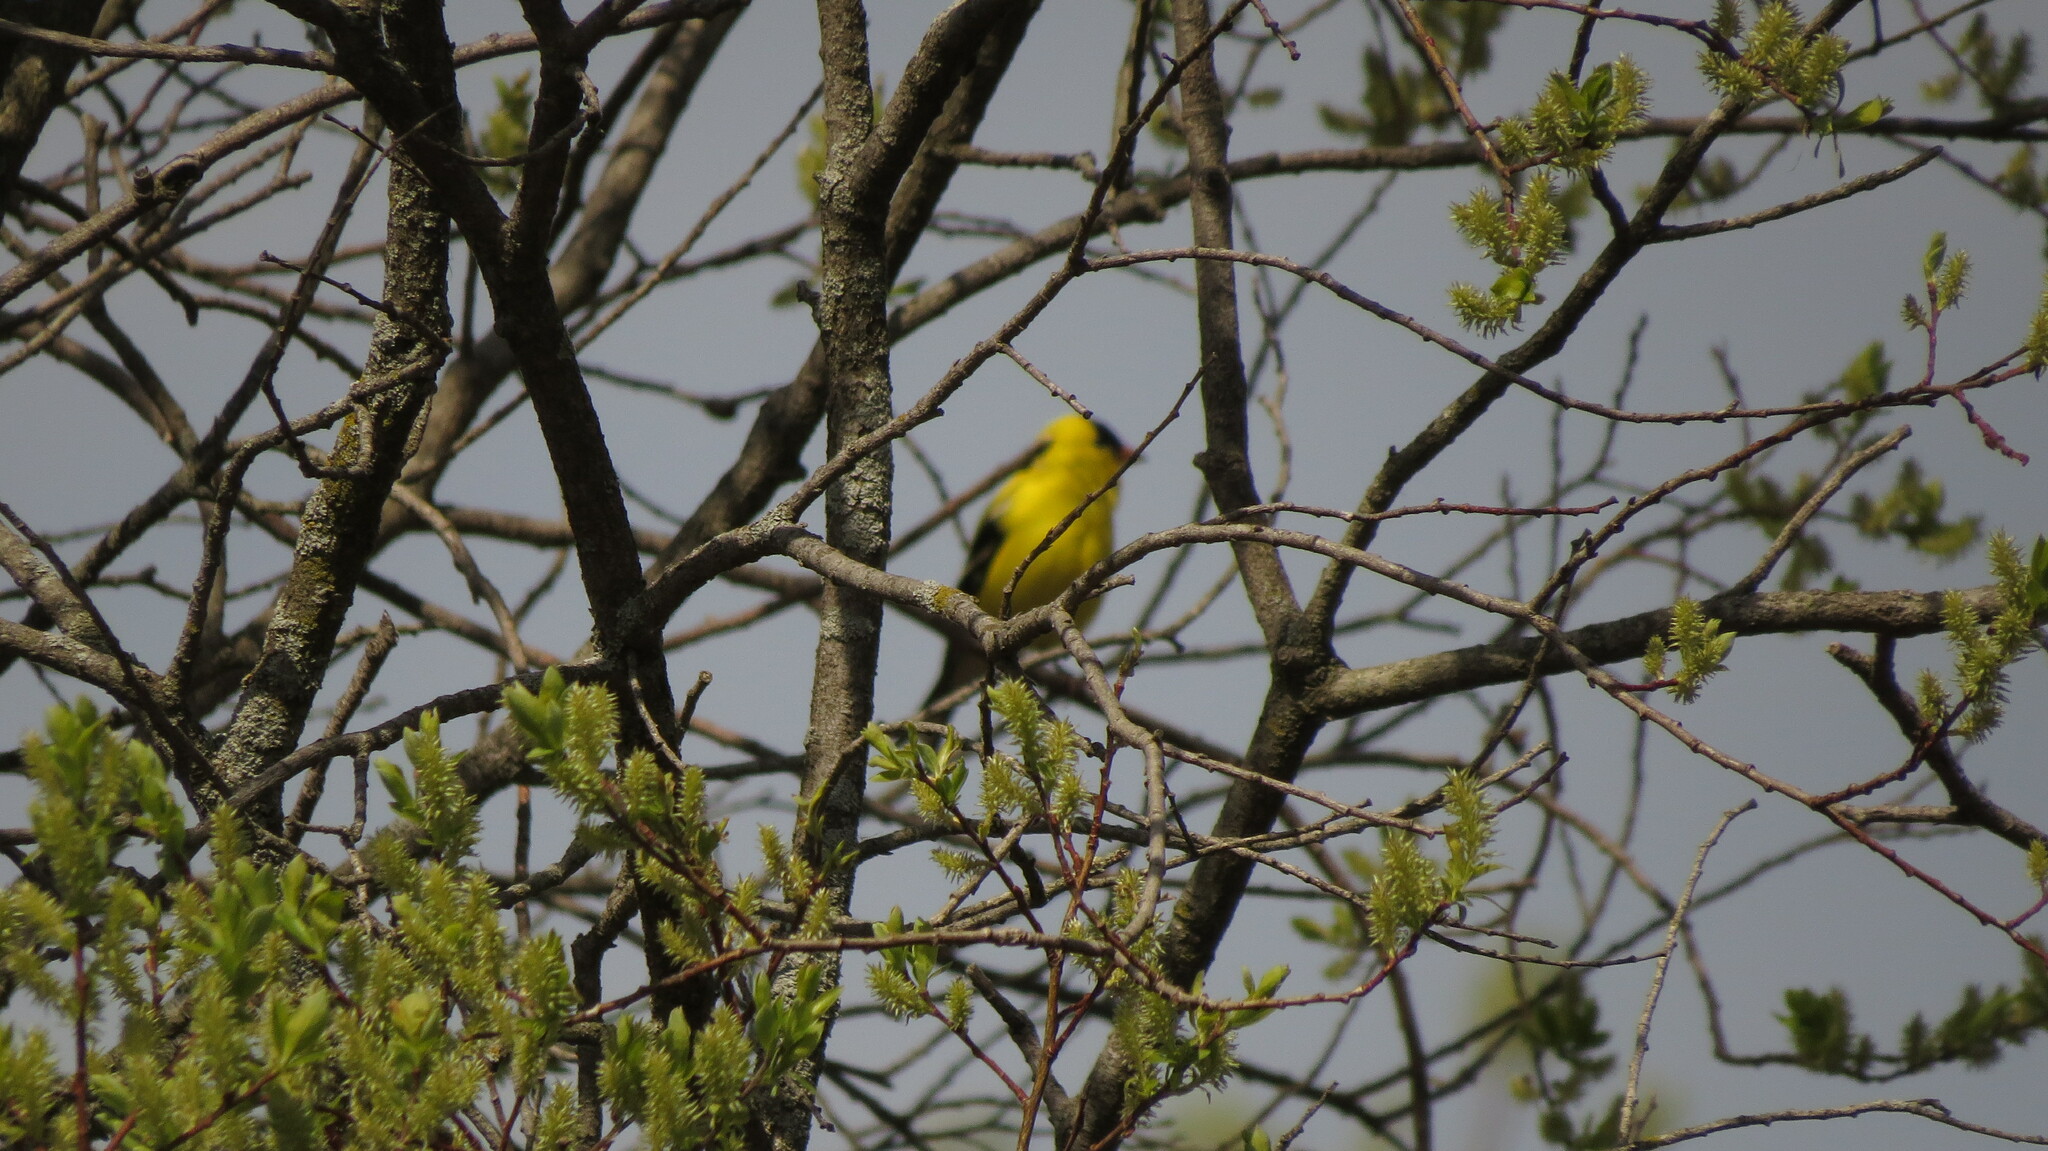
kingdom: Animalia
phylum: Chordata
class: Aves
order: Passeriformes
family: Fringillidae
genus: Spinus
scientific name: Spinus tristis
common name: American goldfinch
